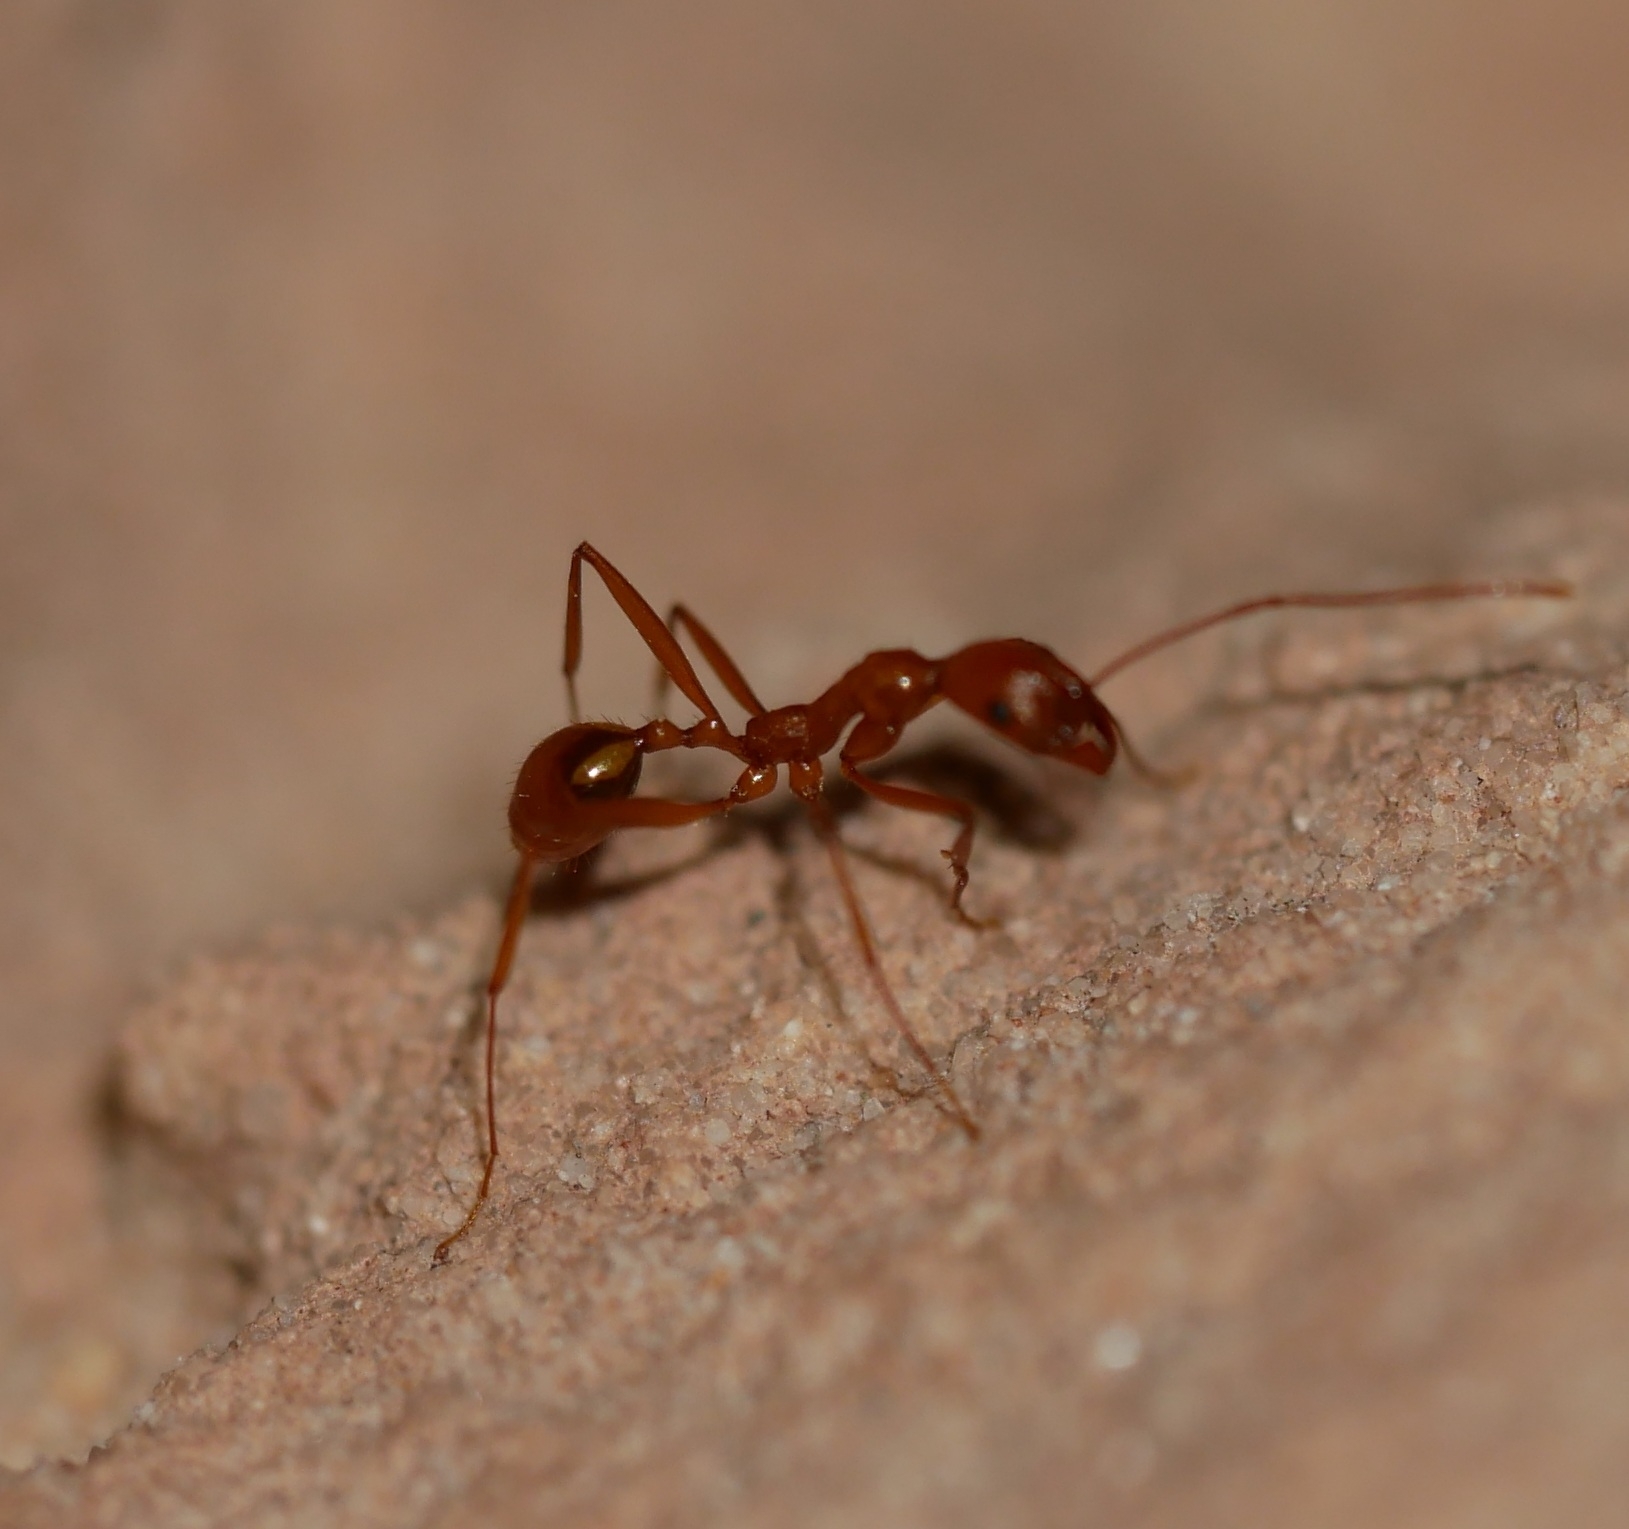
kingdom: Animalia
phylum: Arthropoda
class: Insecta
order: Hymenoptera
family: Formicidae
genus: Aphaenogaster
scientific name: Aphaenogaster boulderensis
